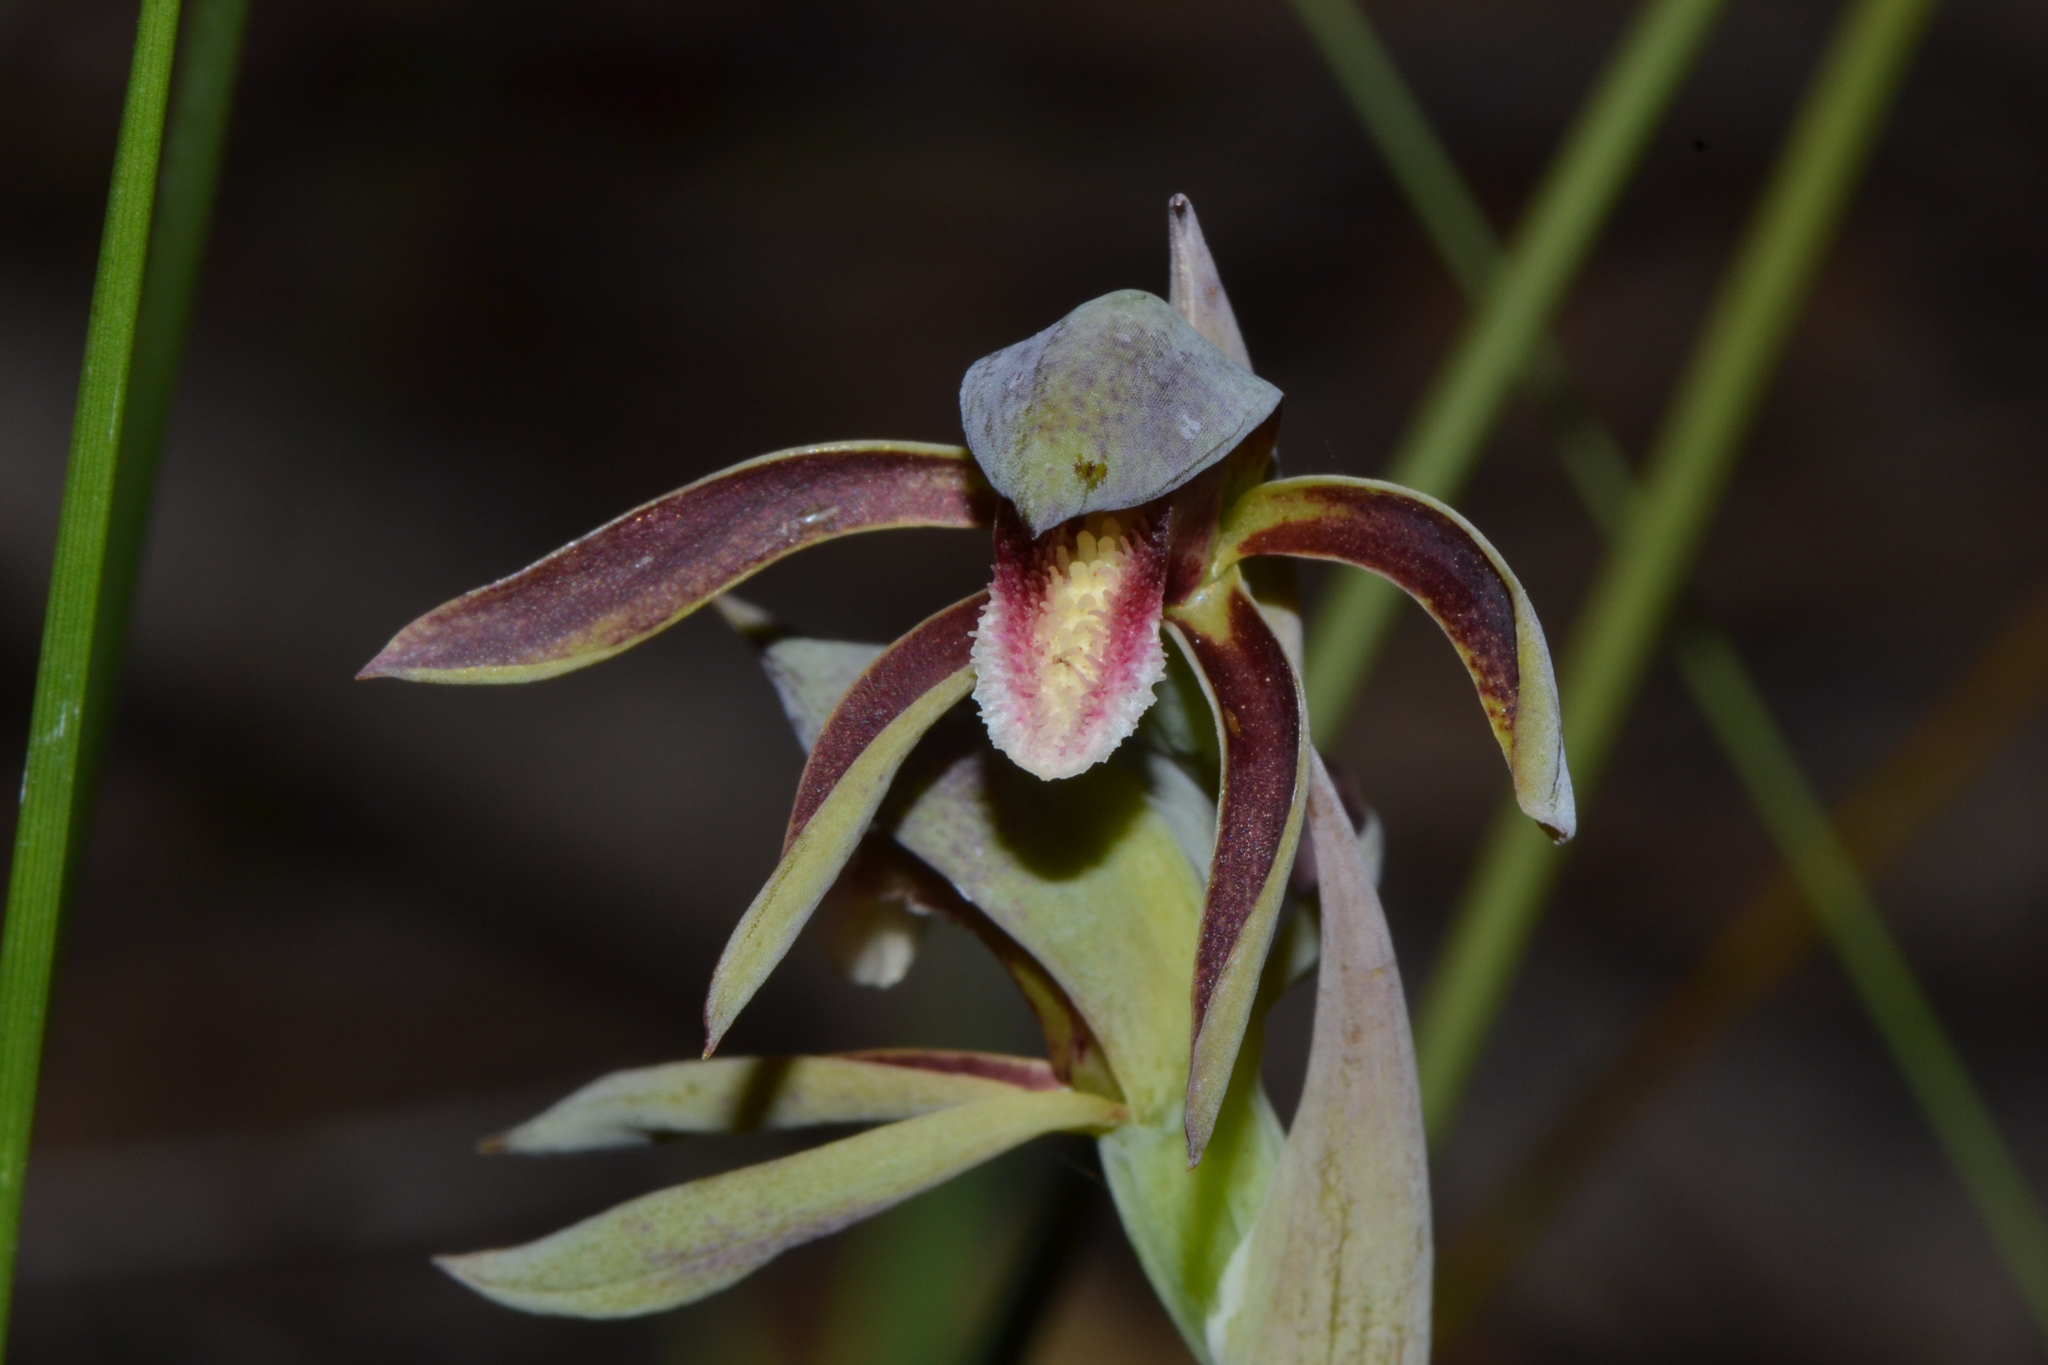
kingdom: Plantae
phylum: Tracheophyta
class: Liliopsida
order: Asparagales
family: Orchidaceae
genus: Lyperanthus
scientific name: Lyperanthus serratus
